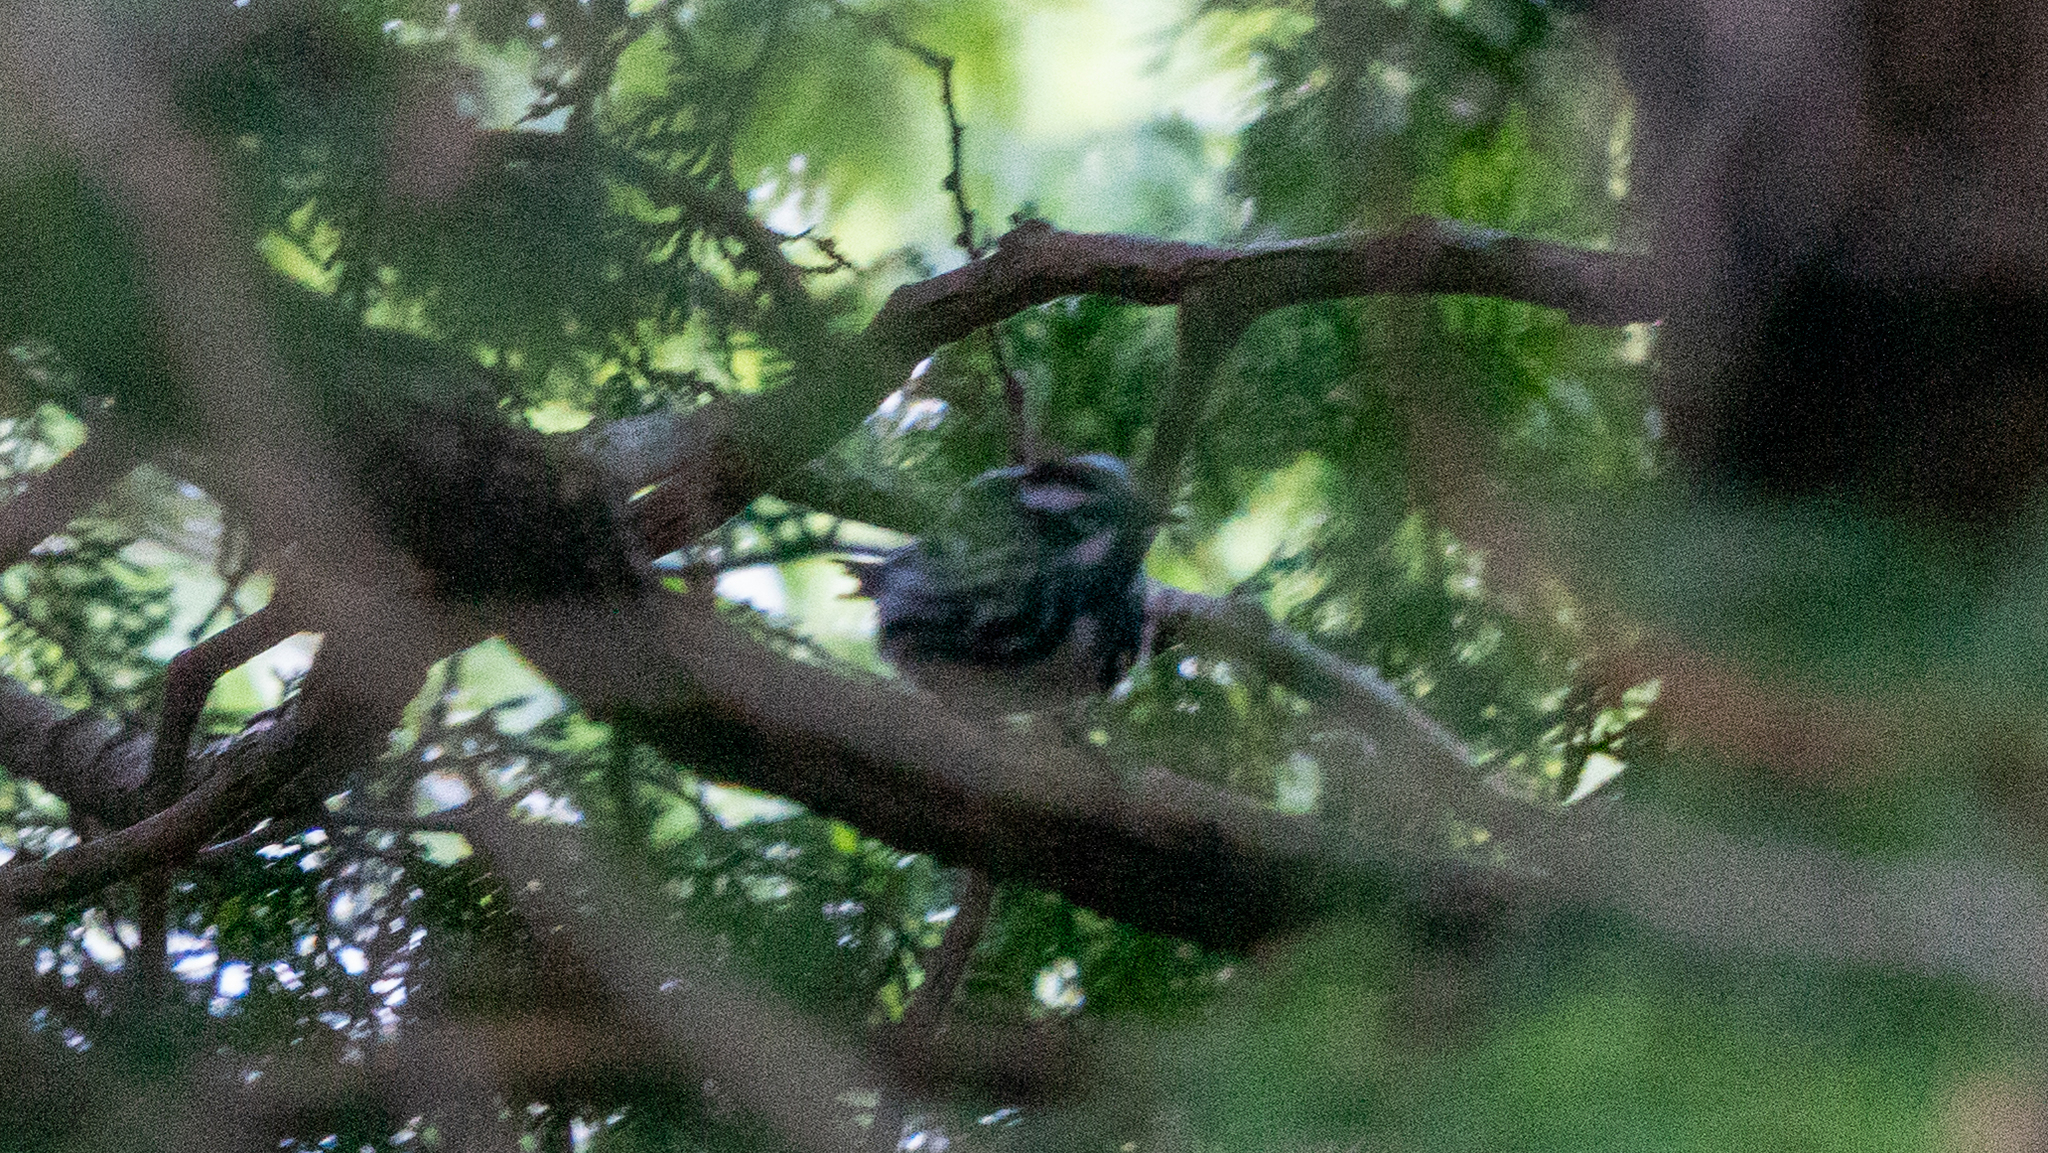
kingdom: Animalia
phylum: Chordata
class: Aves
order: Passeriformes
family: Parulidae
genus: Mniotilta
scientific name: Mniotilta varia
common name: Black-and-white warbler
